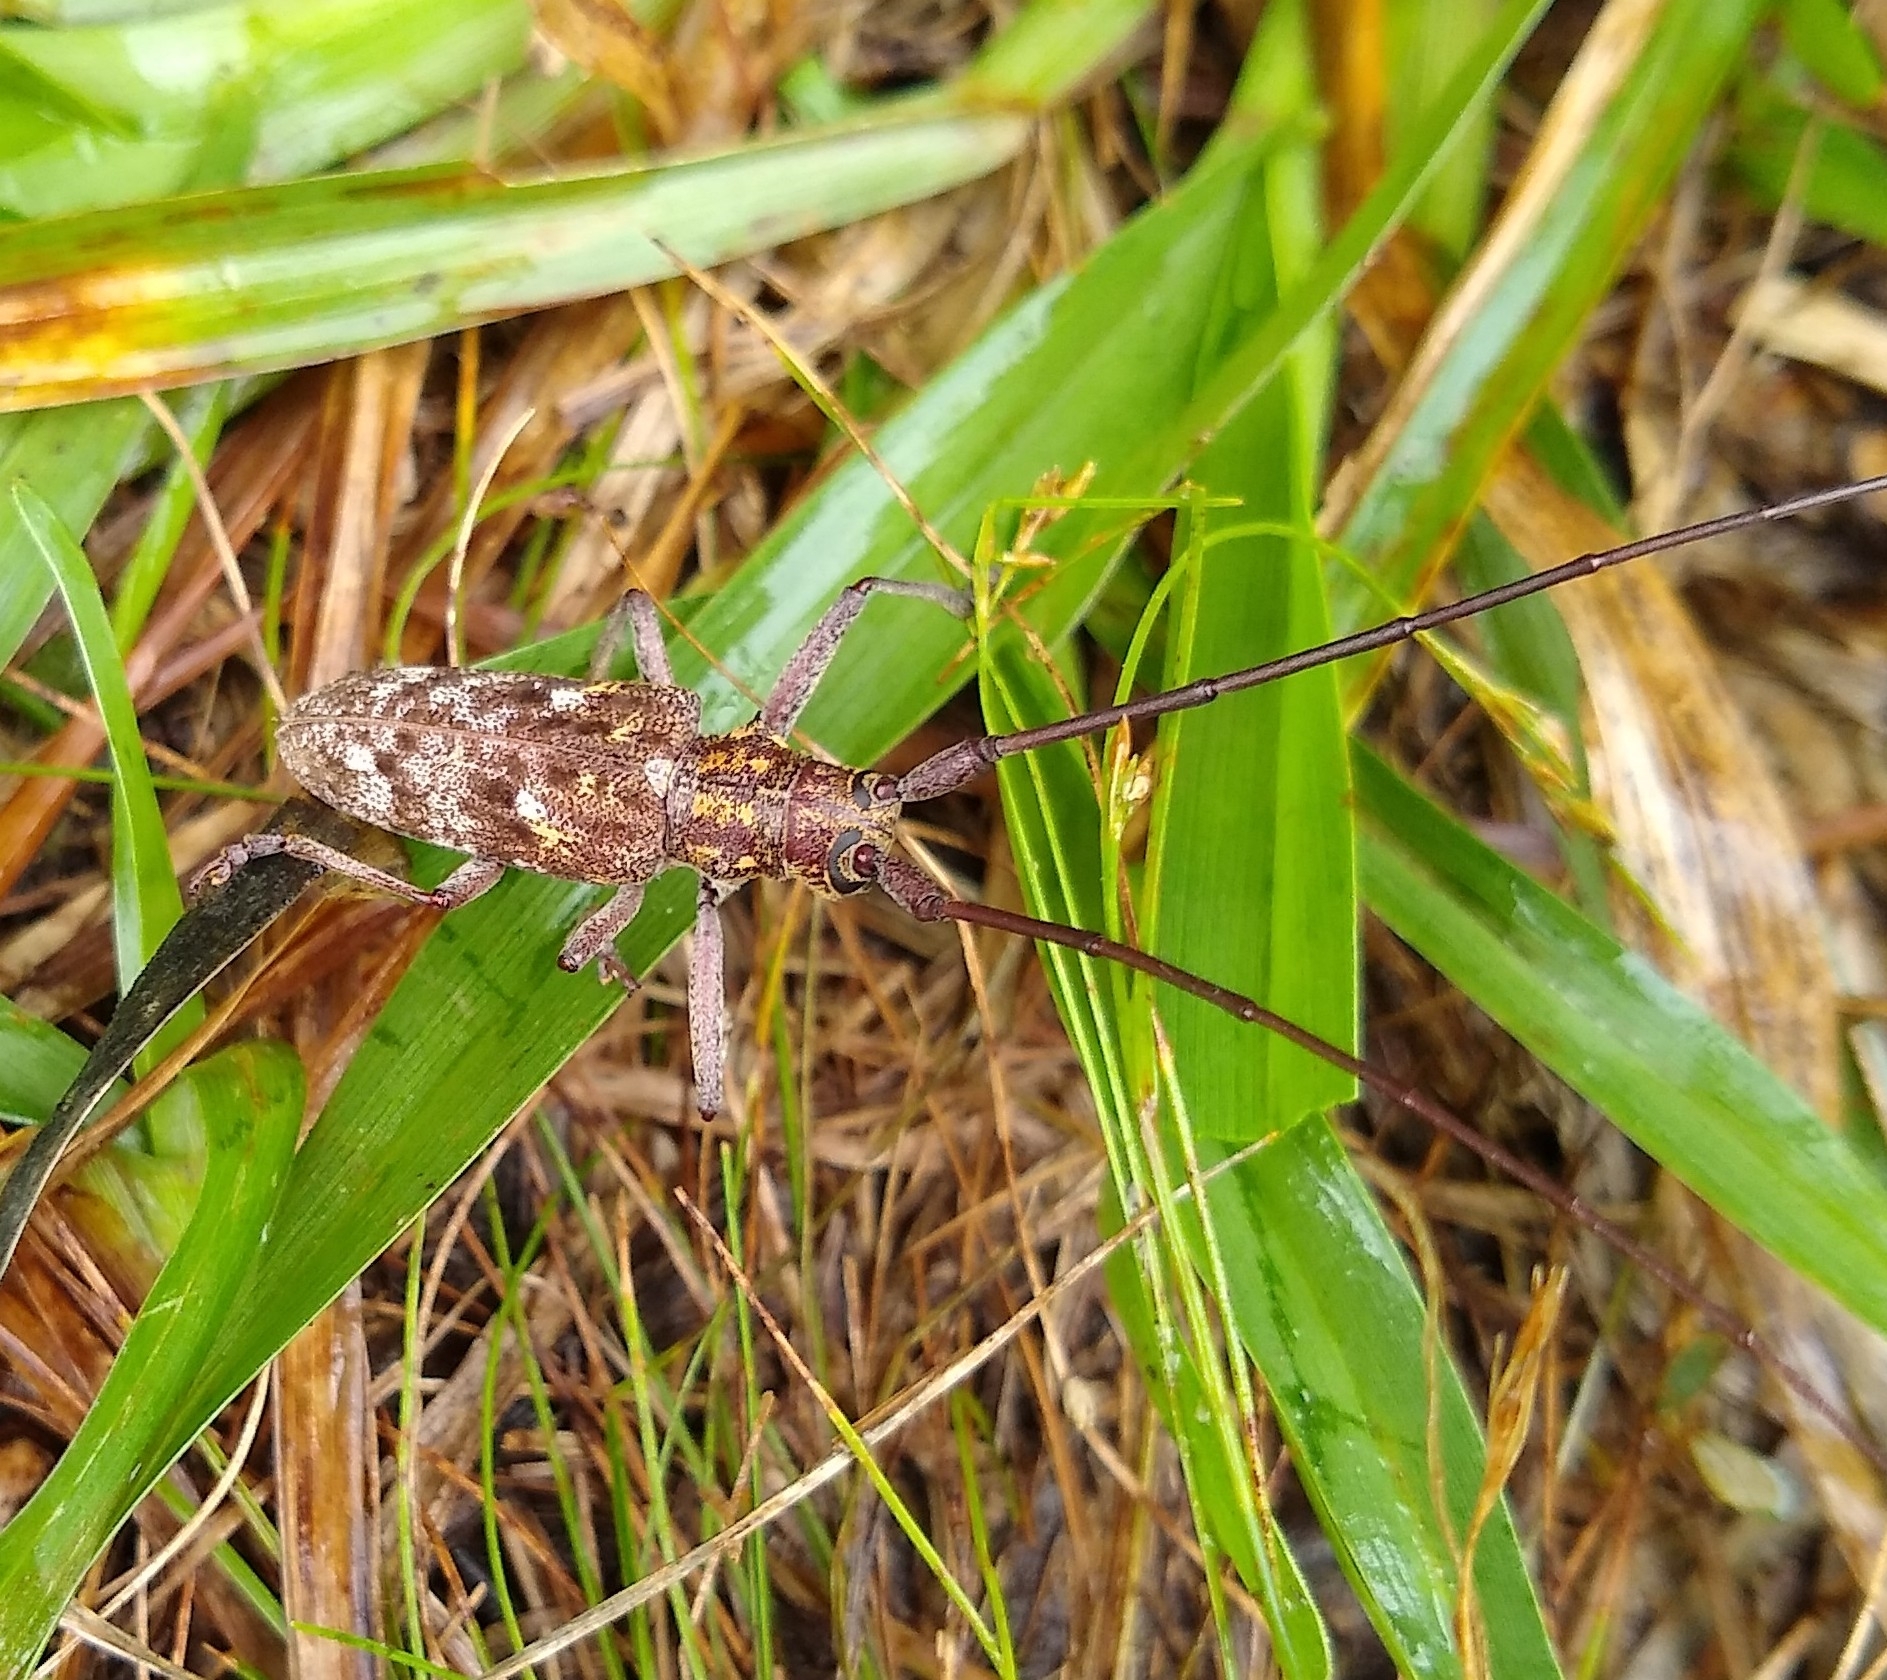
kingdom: Animalia
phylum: Arthropoda
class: Insecta
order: Coleoptera
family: Cerambycidae
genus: Monochamus
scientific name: Monochamus carolinensis
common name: Carolina pine sawyer
